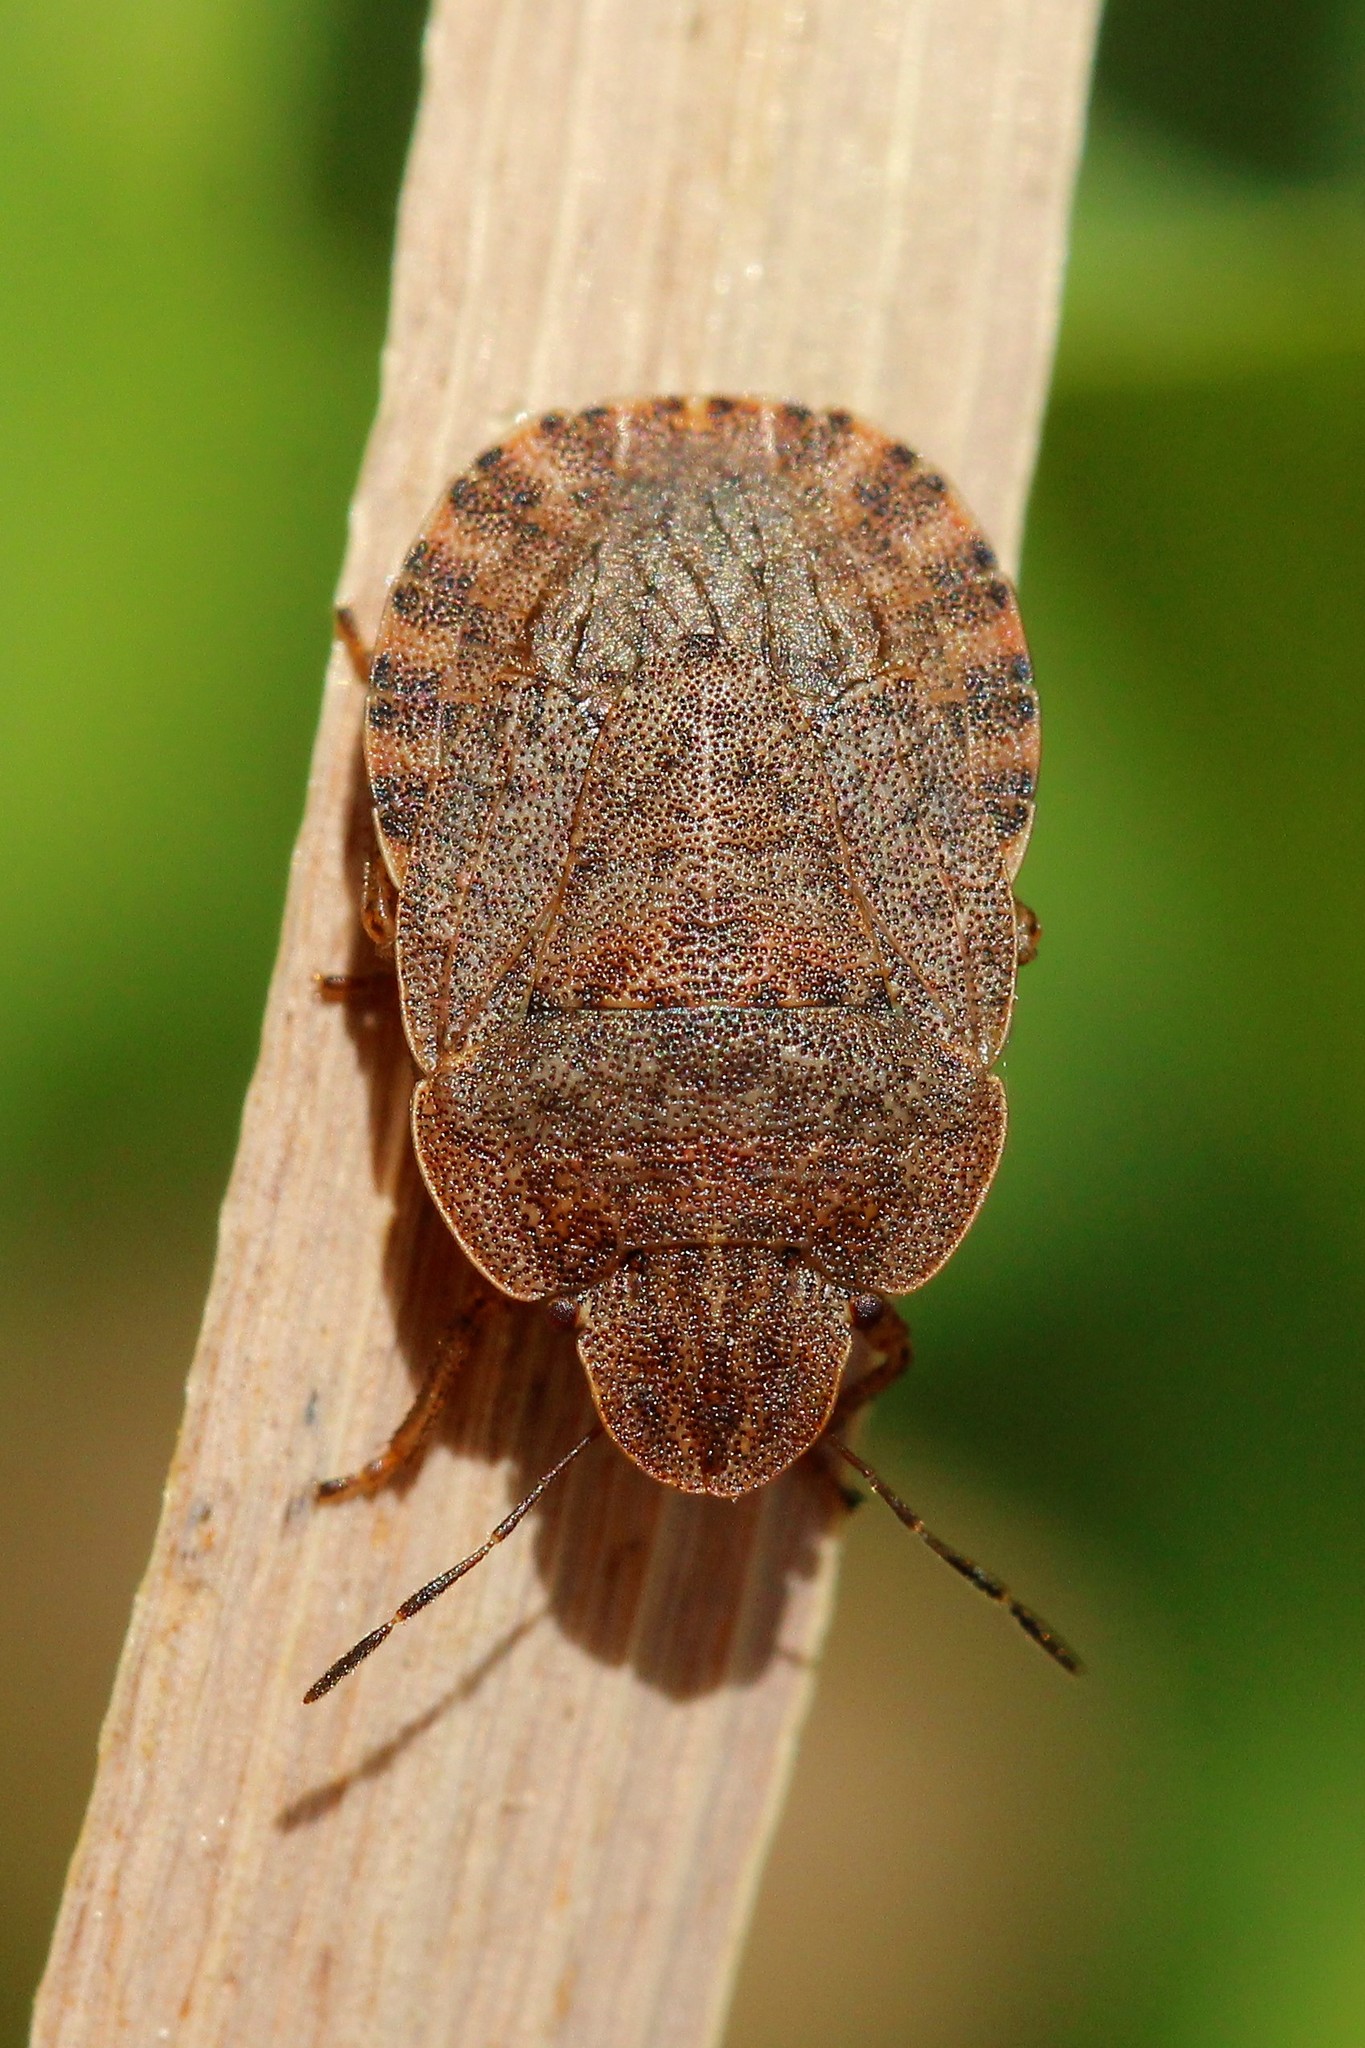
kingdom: Animalia
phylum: Arthropoda
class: Insecta
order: Hemiptera
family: Pentatomidae
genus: Sciocoris
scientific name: Sciocoris homalonotus
